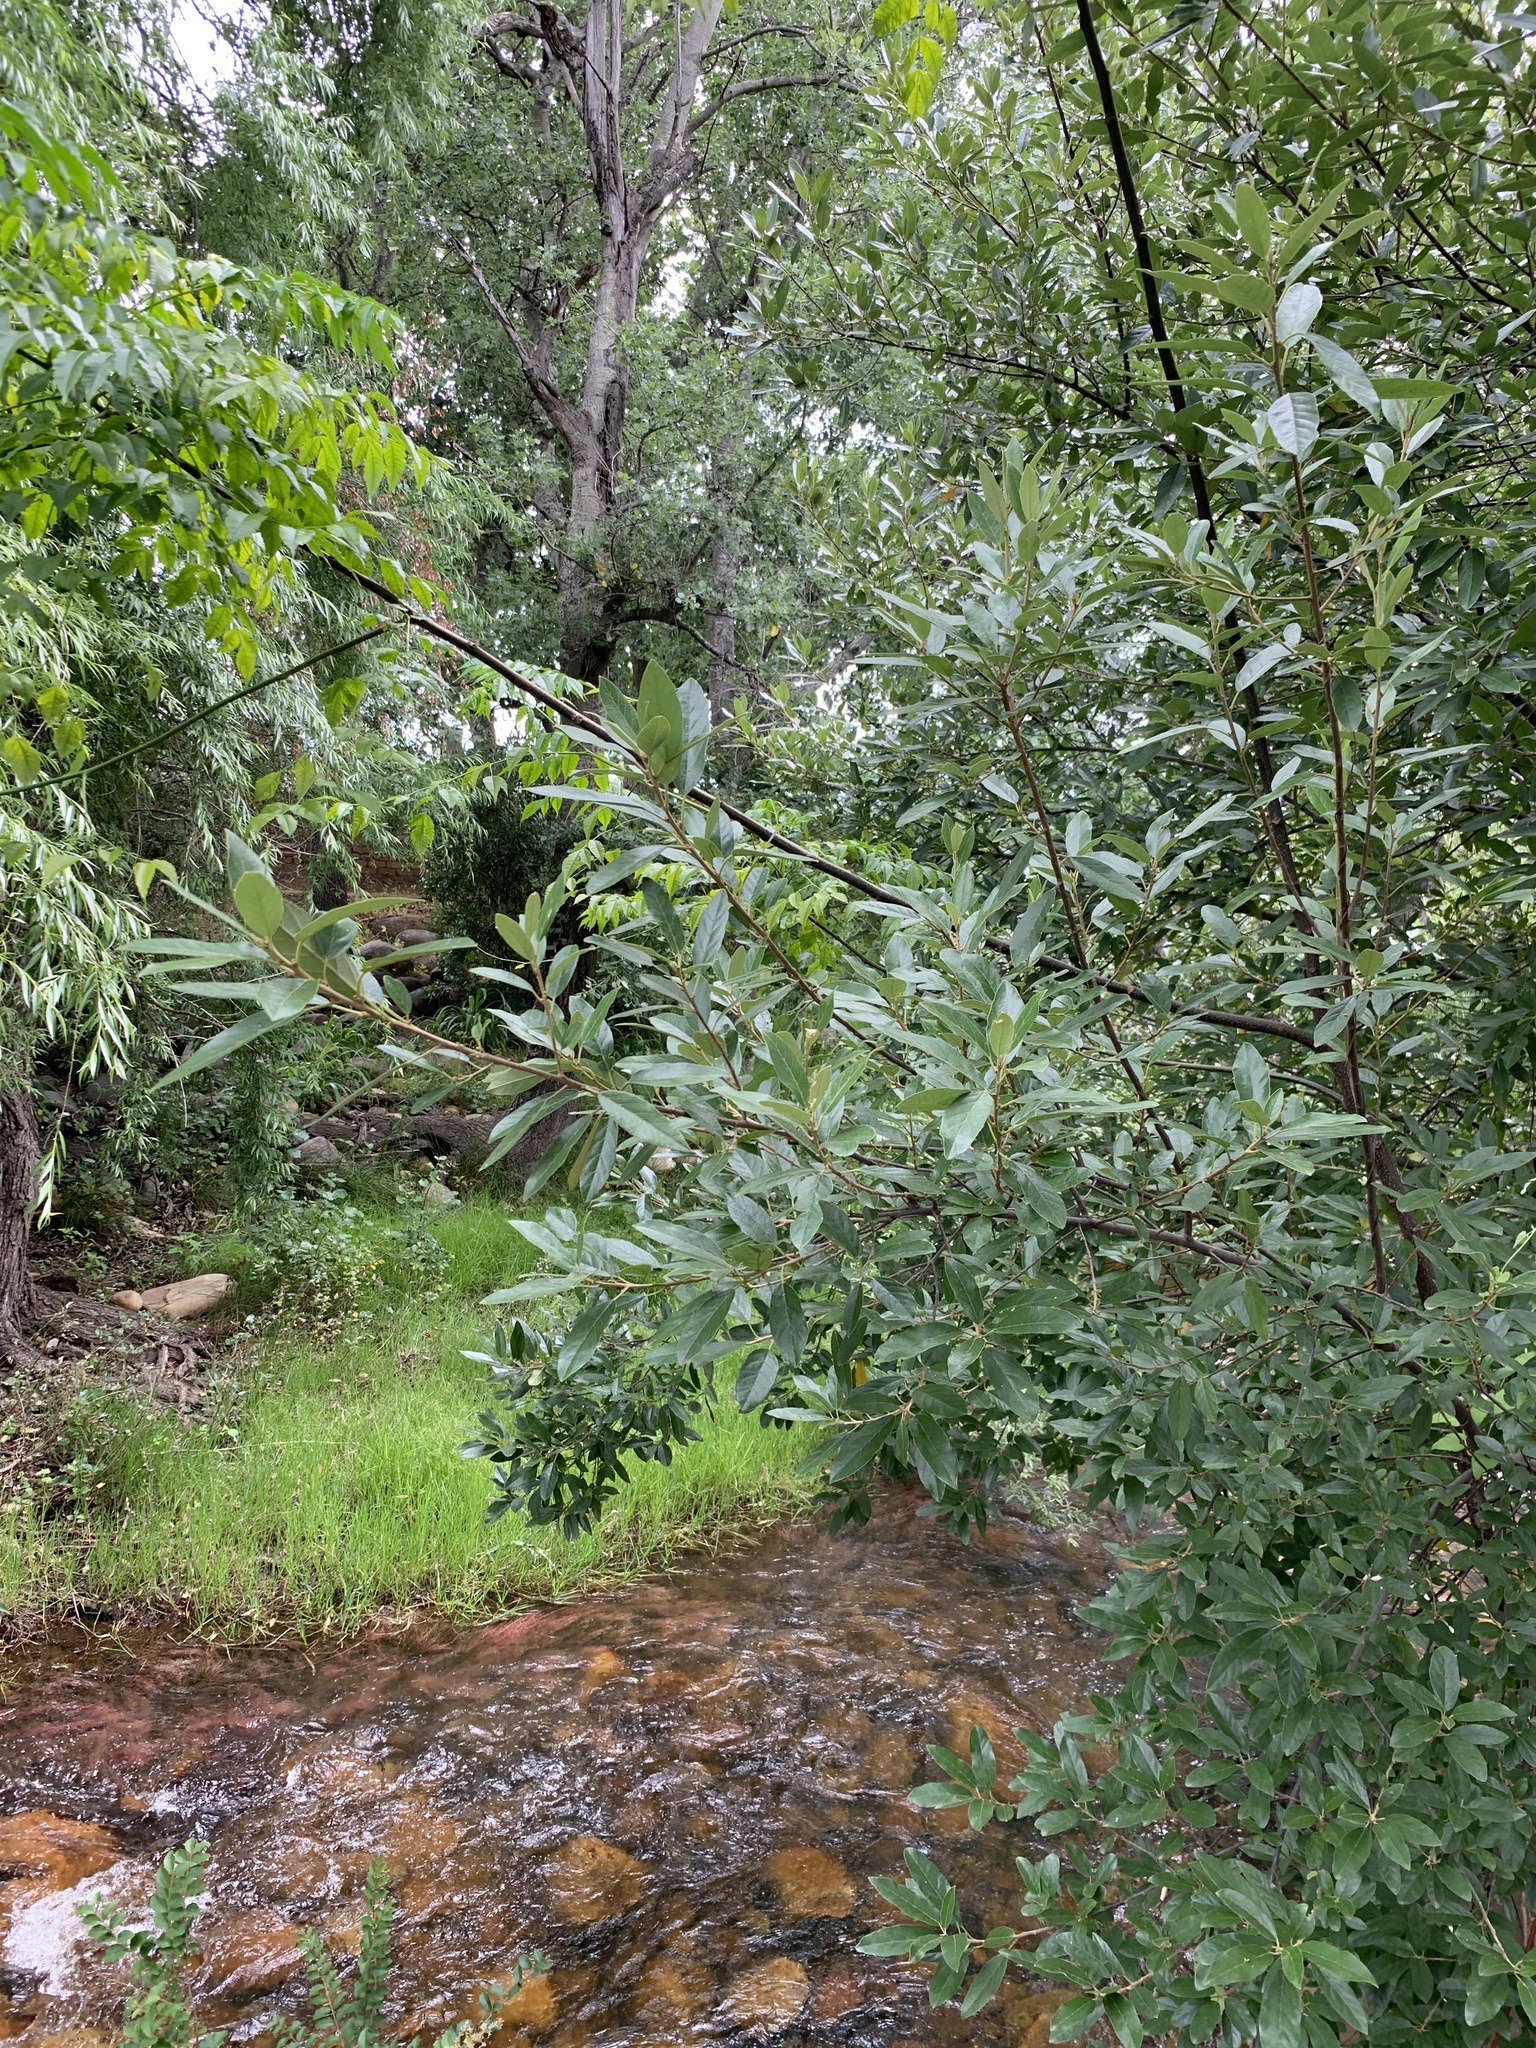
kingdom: Plantae
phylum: Tracheophyta
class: Magnoliopsida
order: Malpighiales
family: Achariaceae
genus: Kiggelaria
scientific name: Kiggelaria africana
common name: Wild peach
